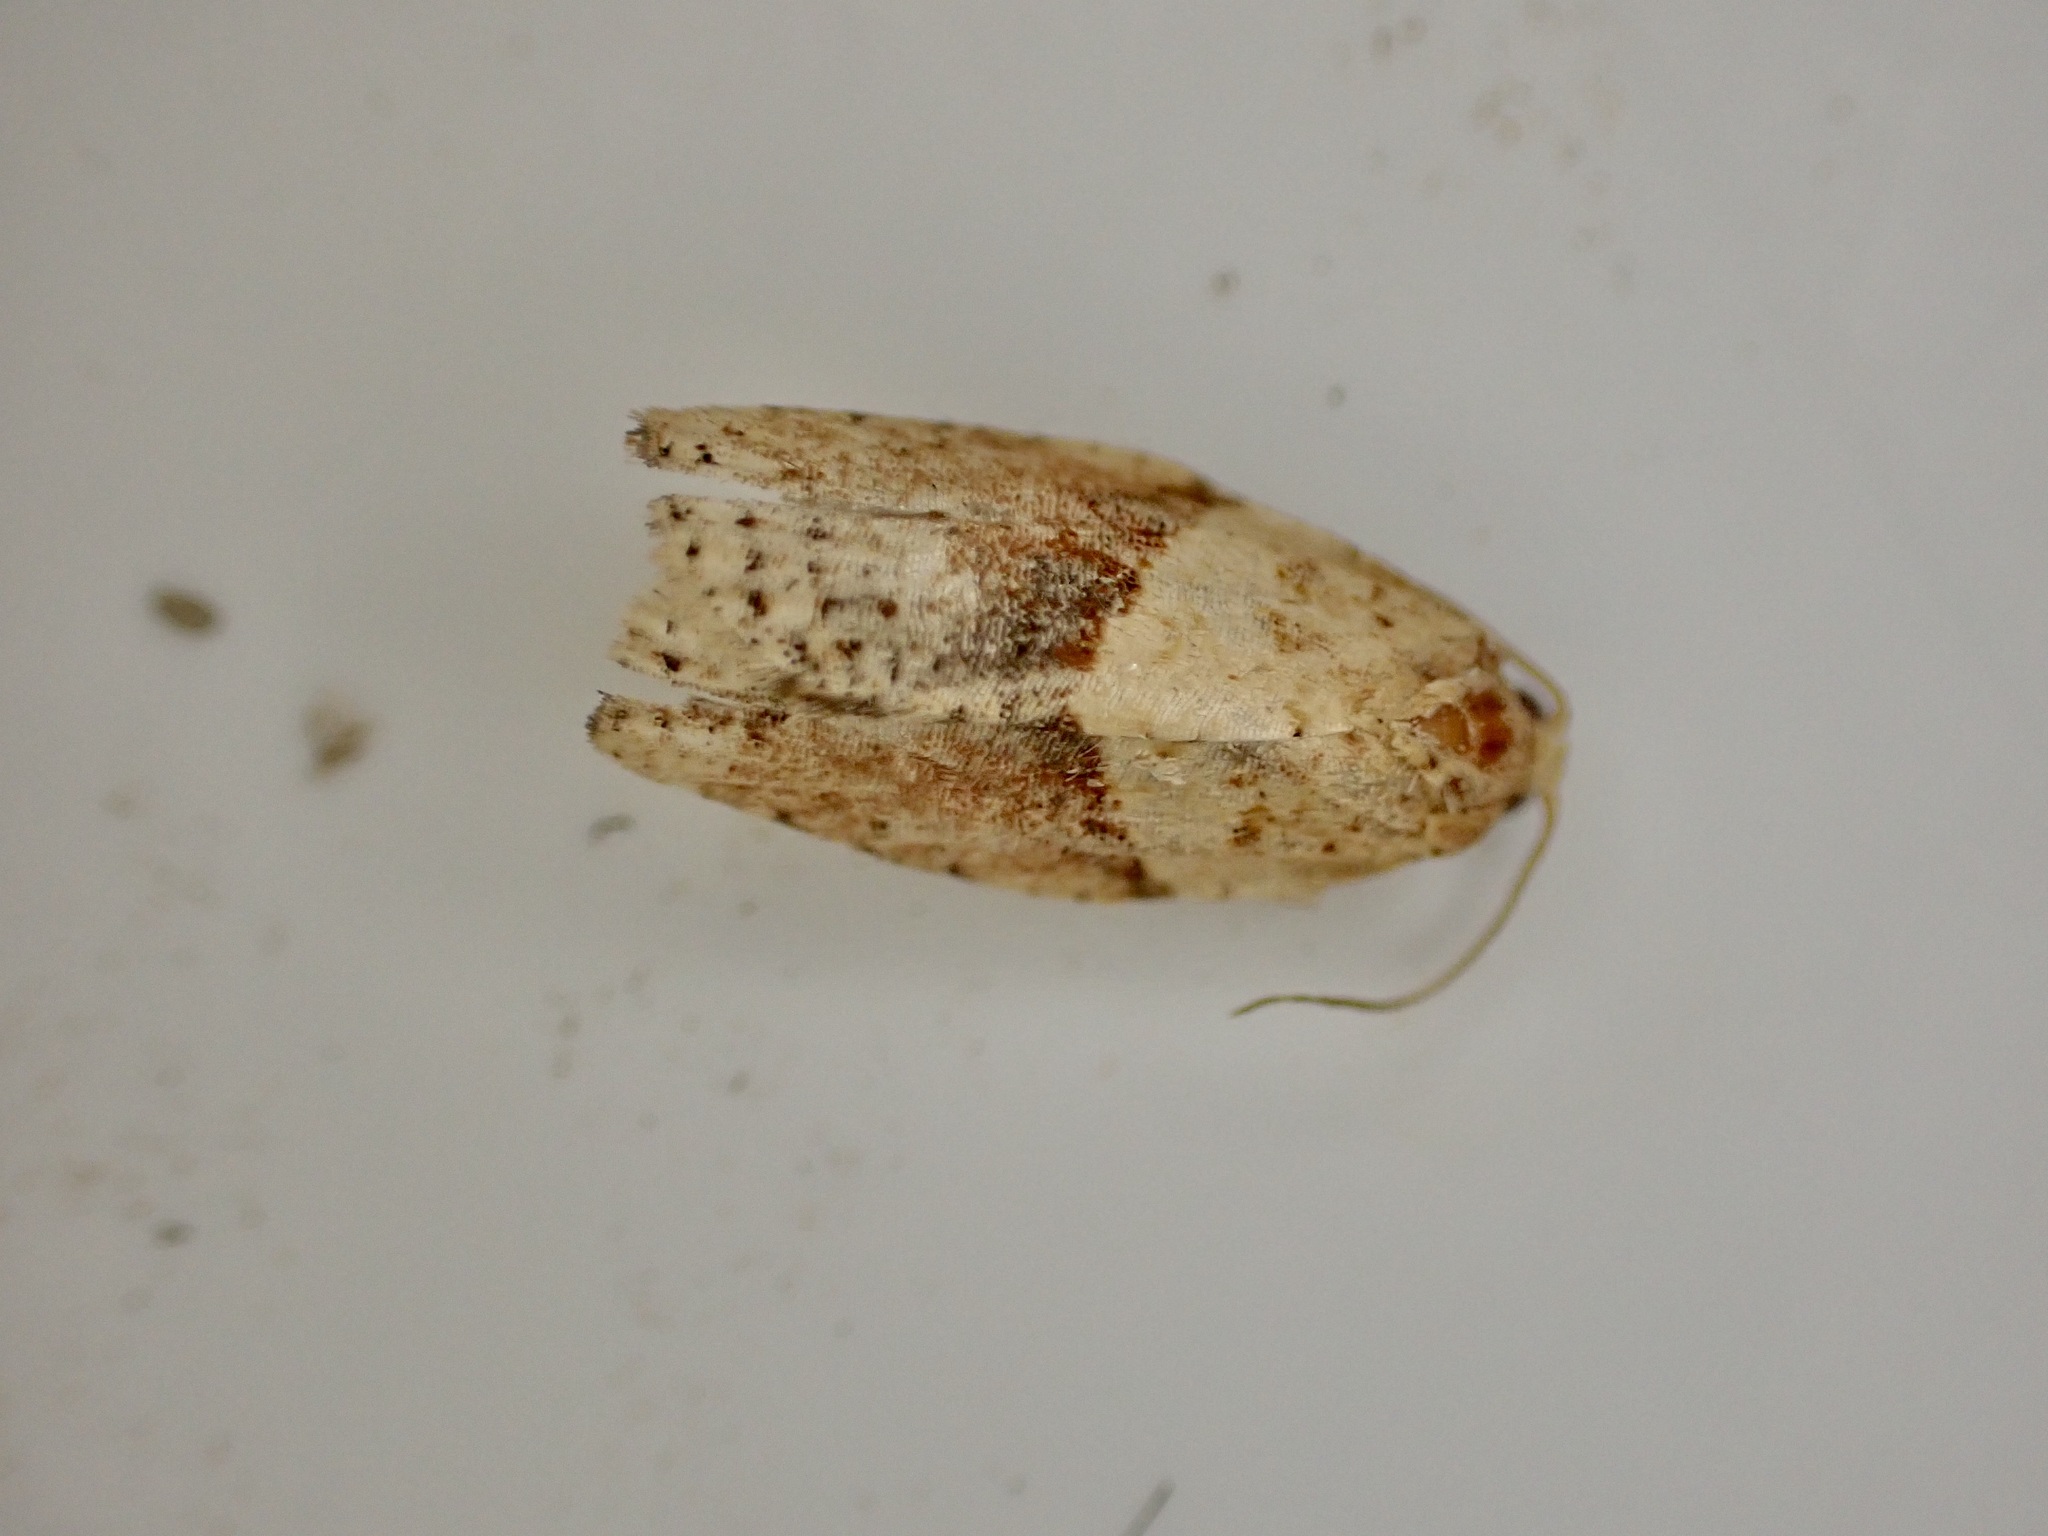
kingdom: Animalia
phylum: Arthropoda
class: Insecta
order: Lepidoptera
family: Tortricidae
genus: Epiphyas
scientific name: Epiphyas postvittana
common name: Light brown apple moth
